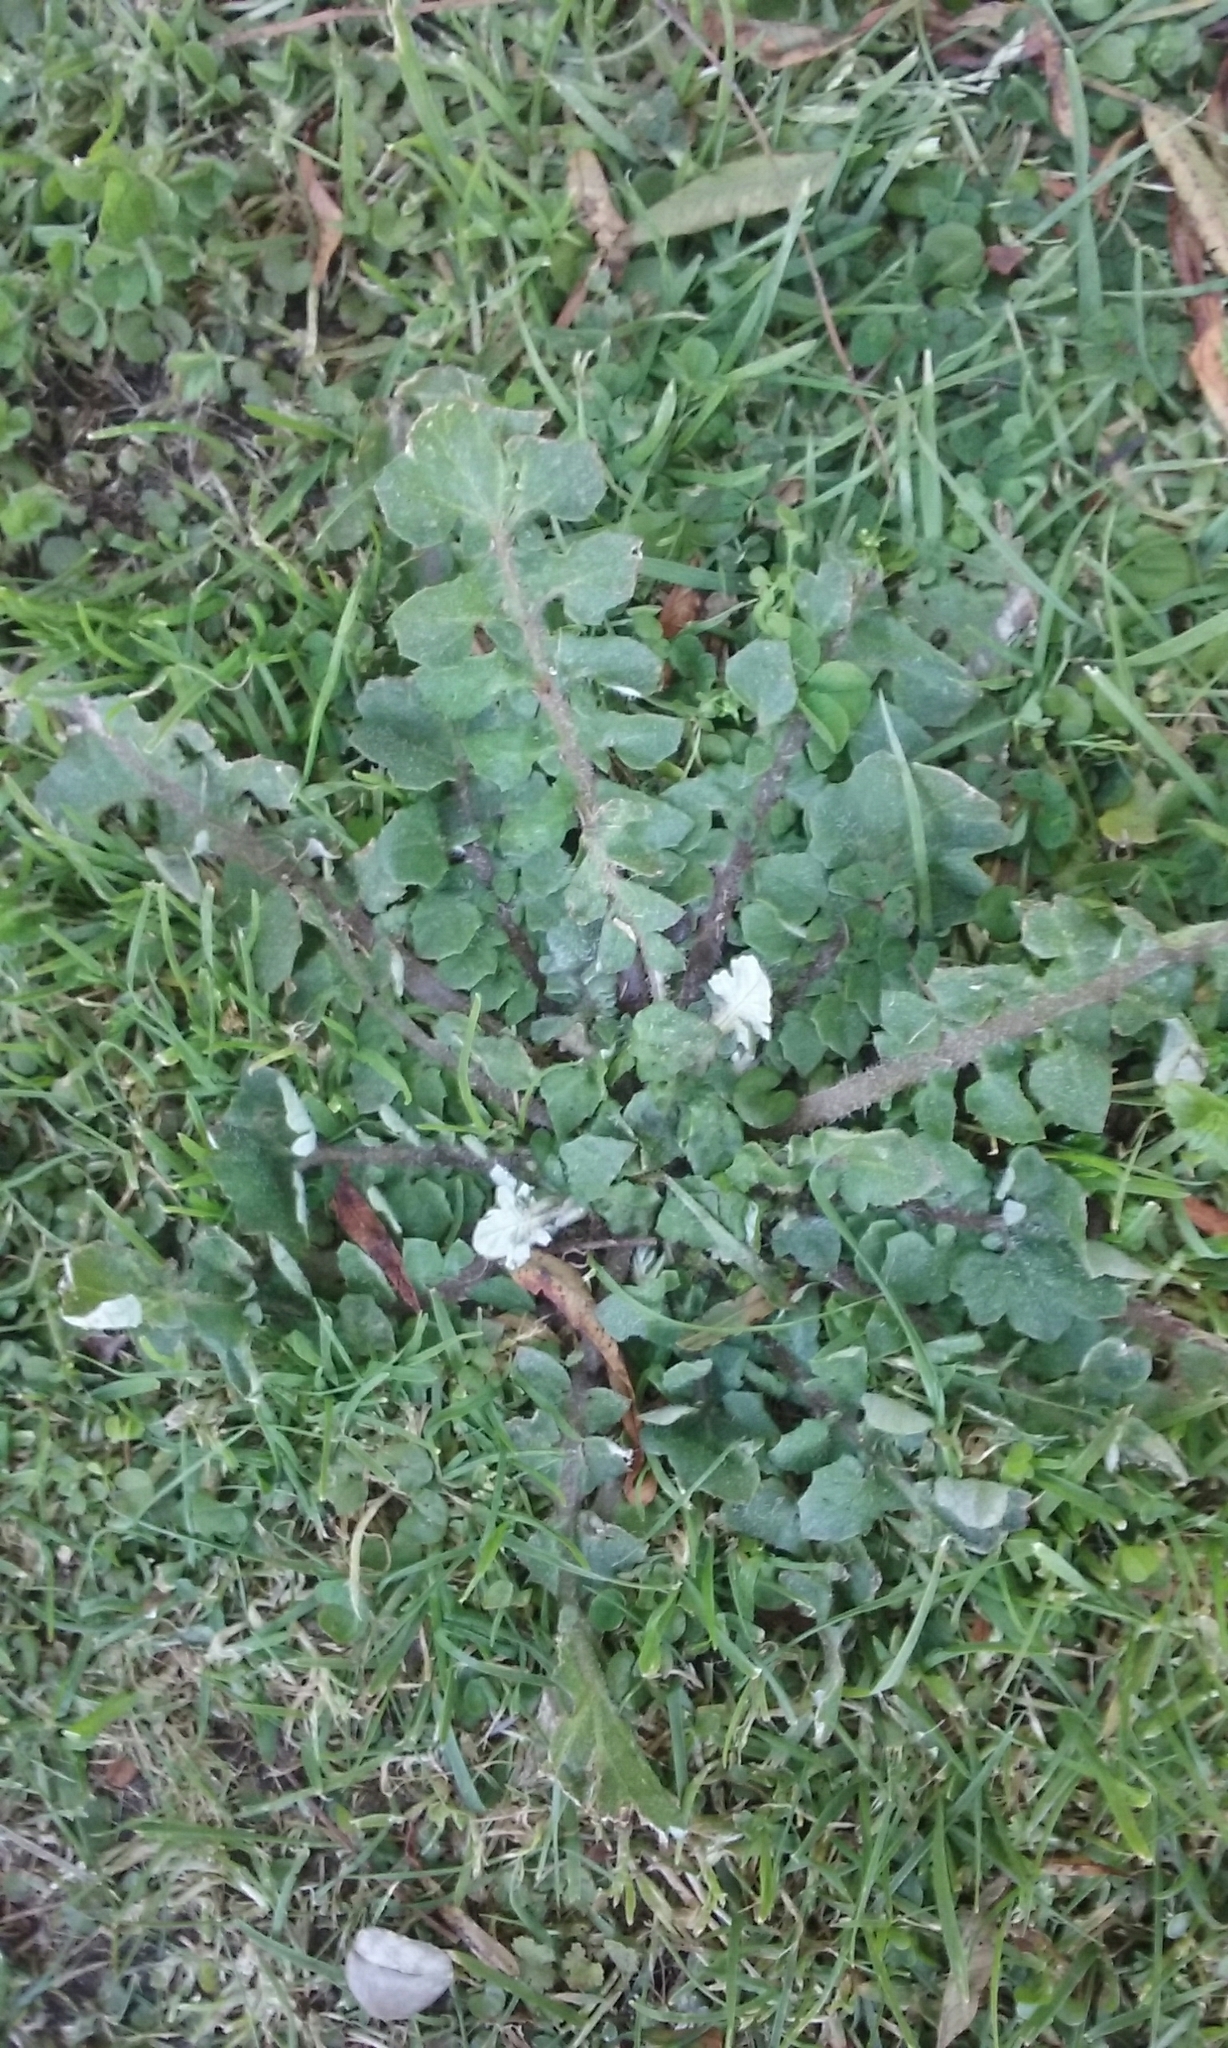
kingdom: Plantae
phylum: Tracheophyta
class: Magnoliopsida
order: Asterales
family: Asteraceae
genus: Arctotheca
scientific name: Arctotheca calendula
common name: Capeweed
